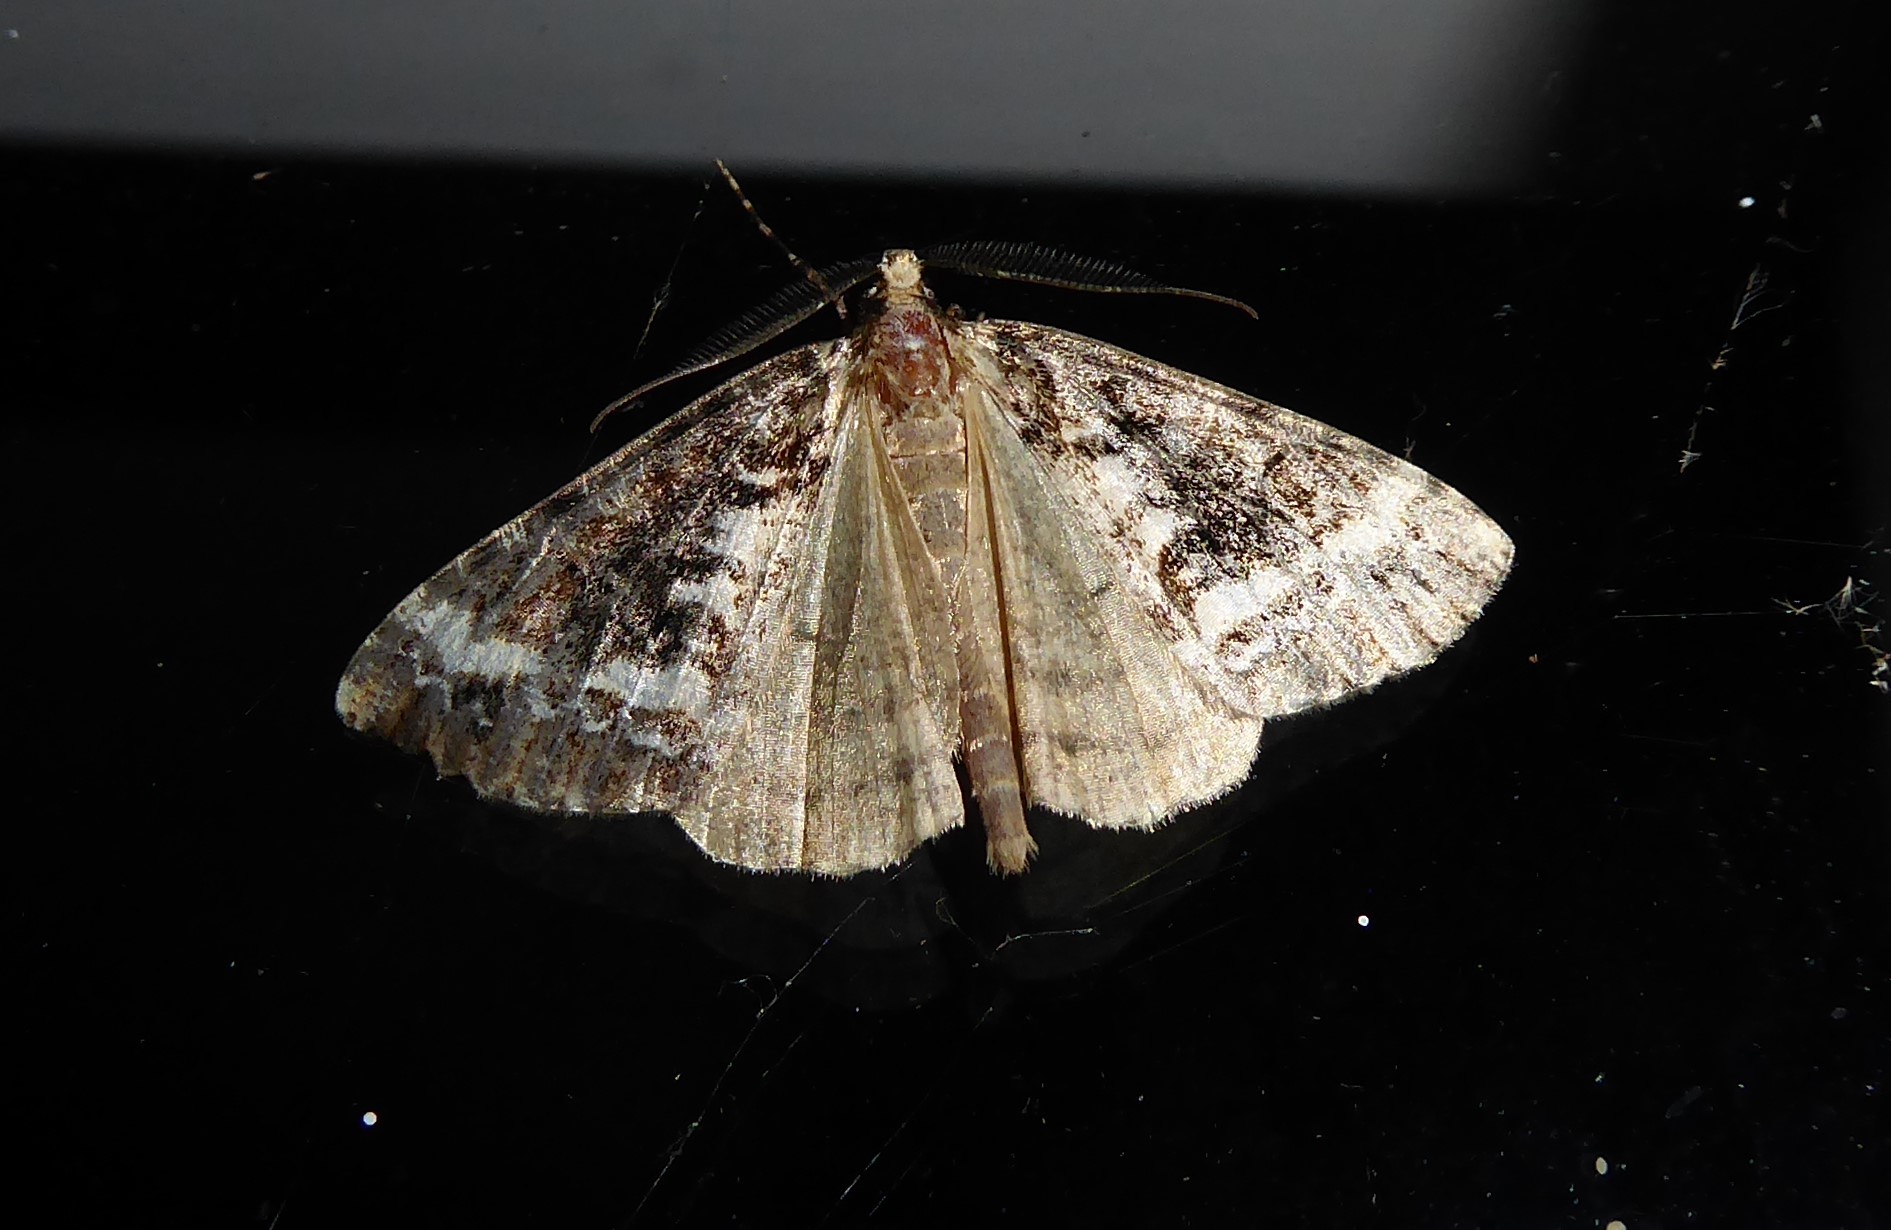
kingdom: Animalia
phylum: Arthropoda
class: Insecta
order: Lepidoptera
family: Geometridae
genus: Pseudocoremia
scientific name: Pseudocoremia leucelaea
